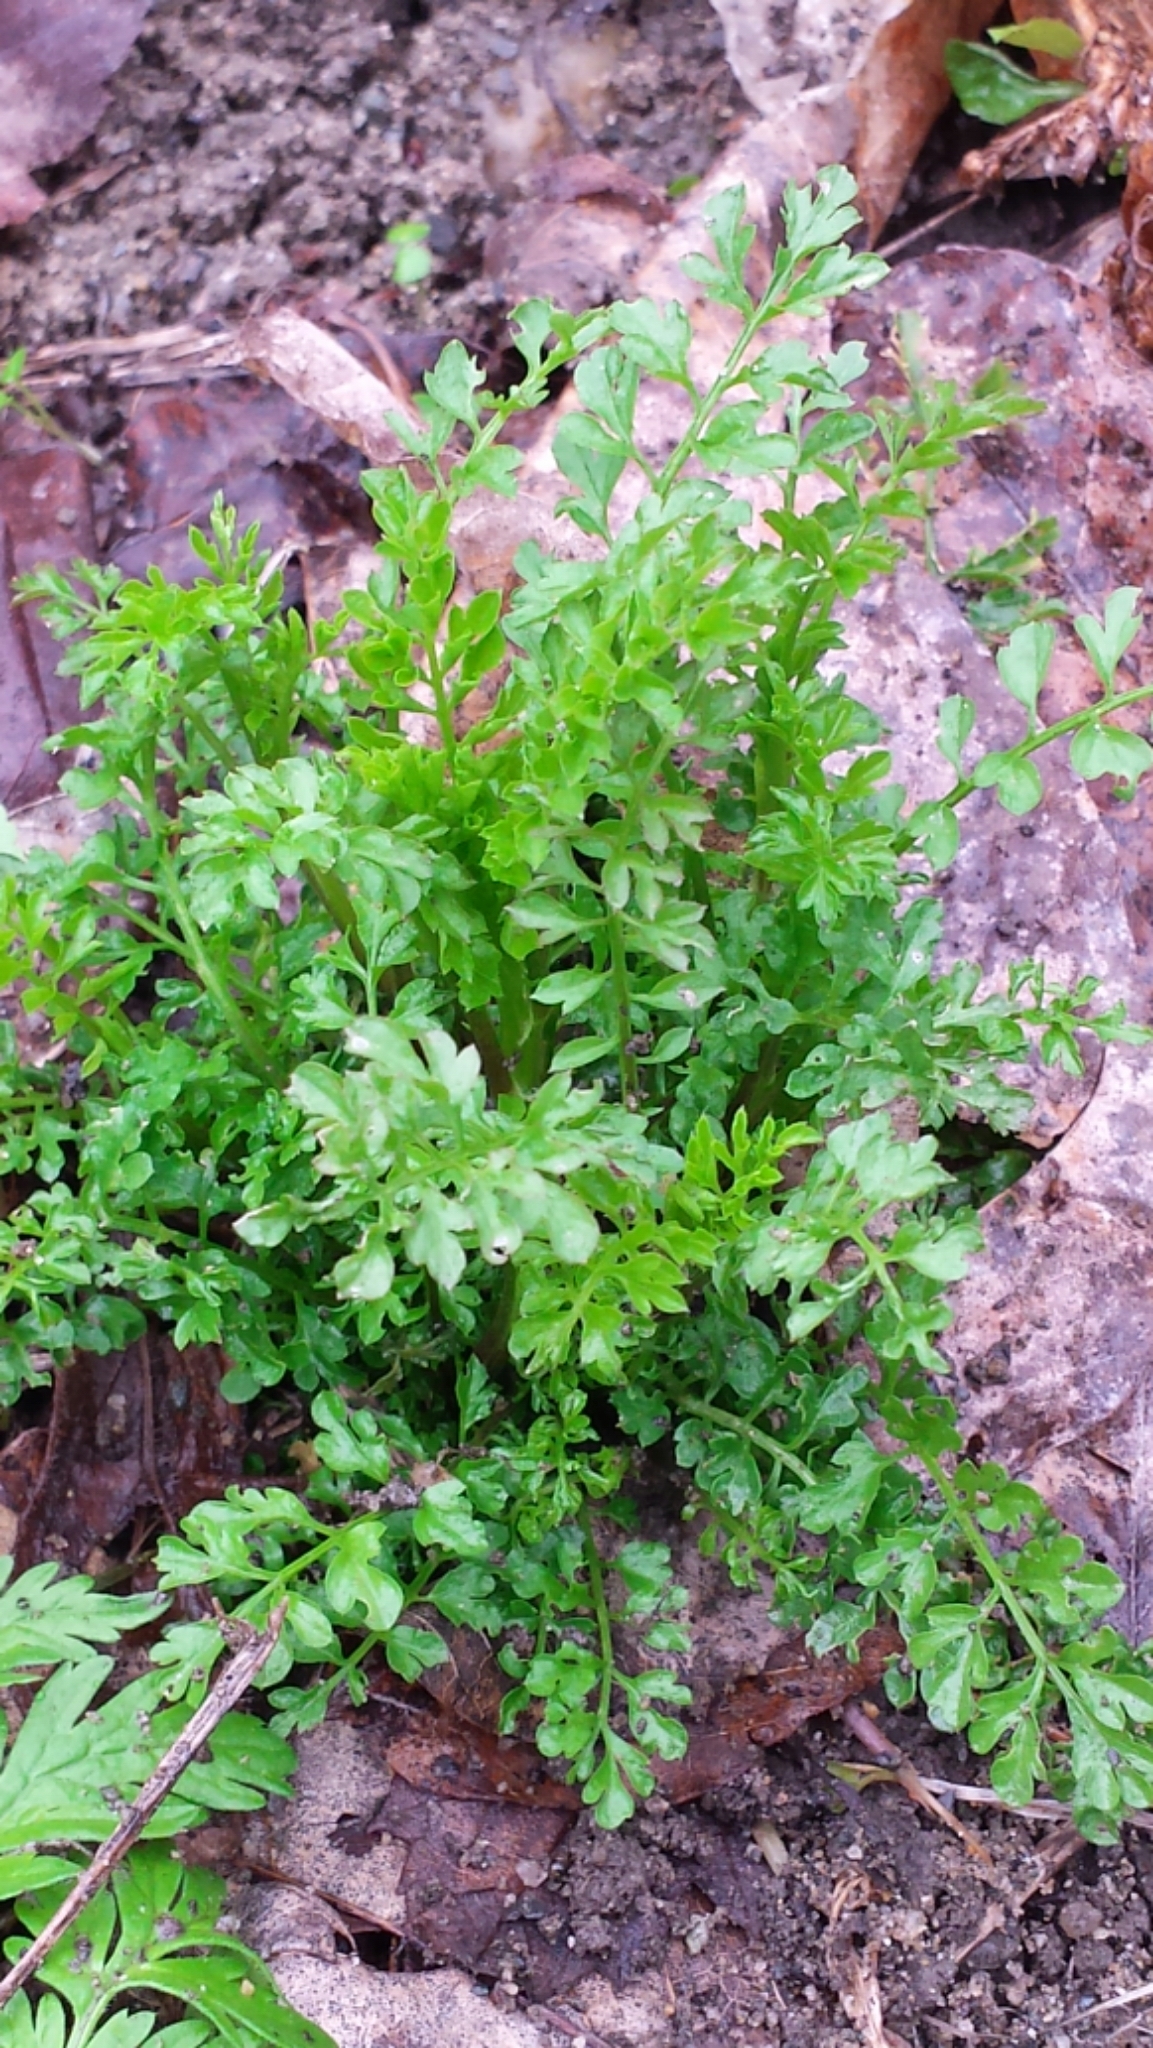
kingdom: Plantae
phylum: Tracheophyta
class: Magnoliopsida
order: Brassicales
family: Brassicaceae
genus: Cardamine
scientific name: Cardamine impatiens
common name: Narrow-leaved bitter-cress
